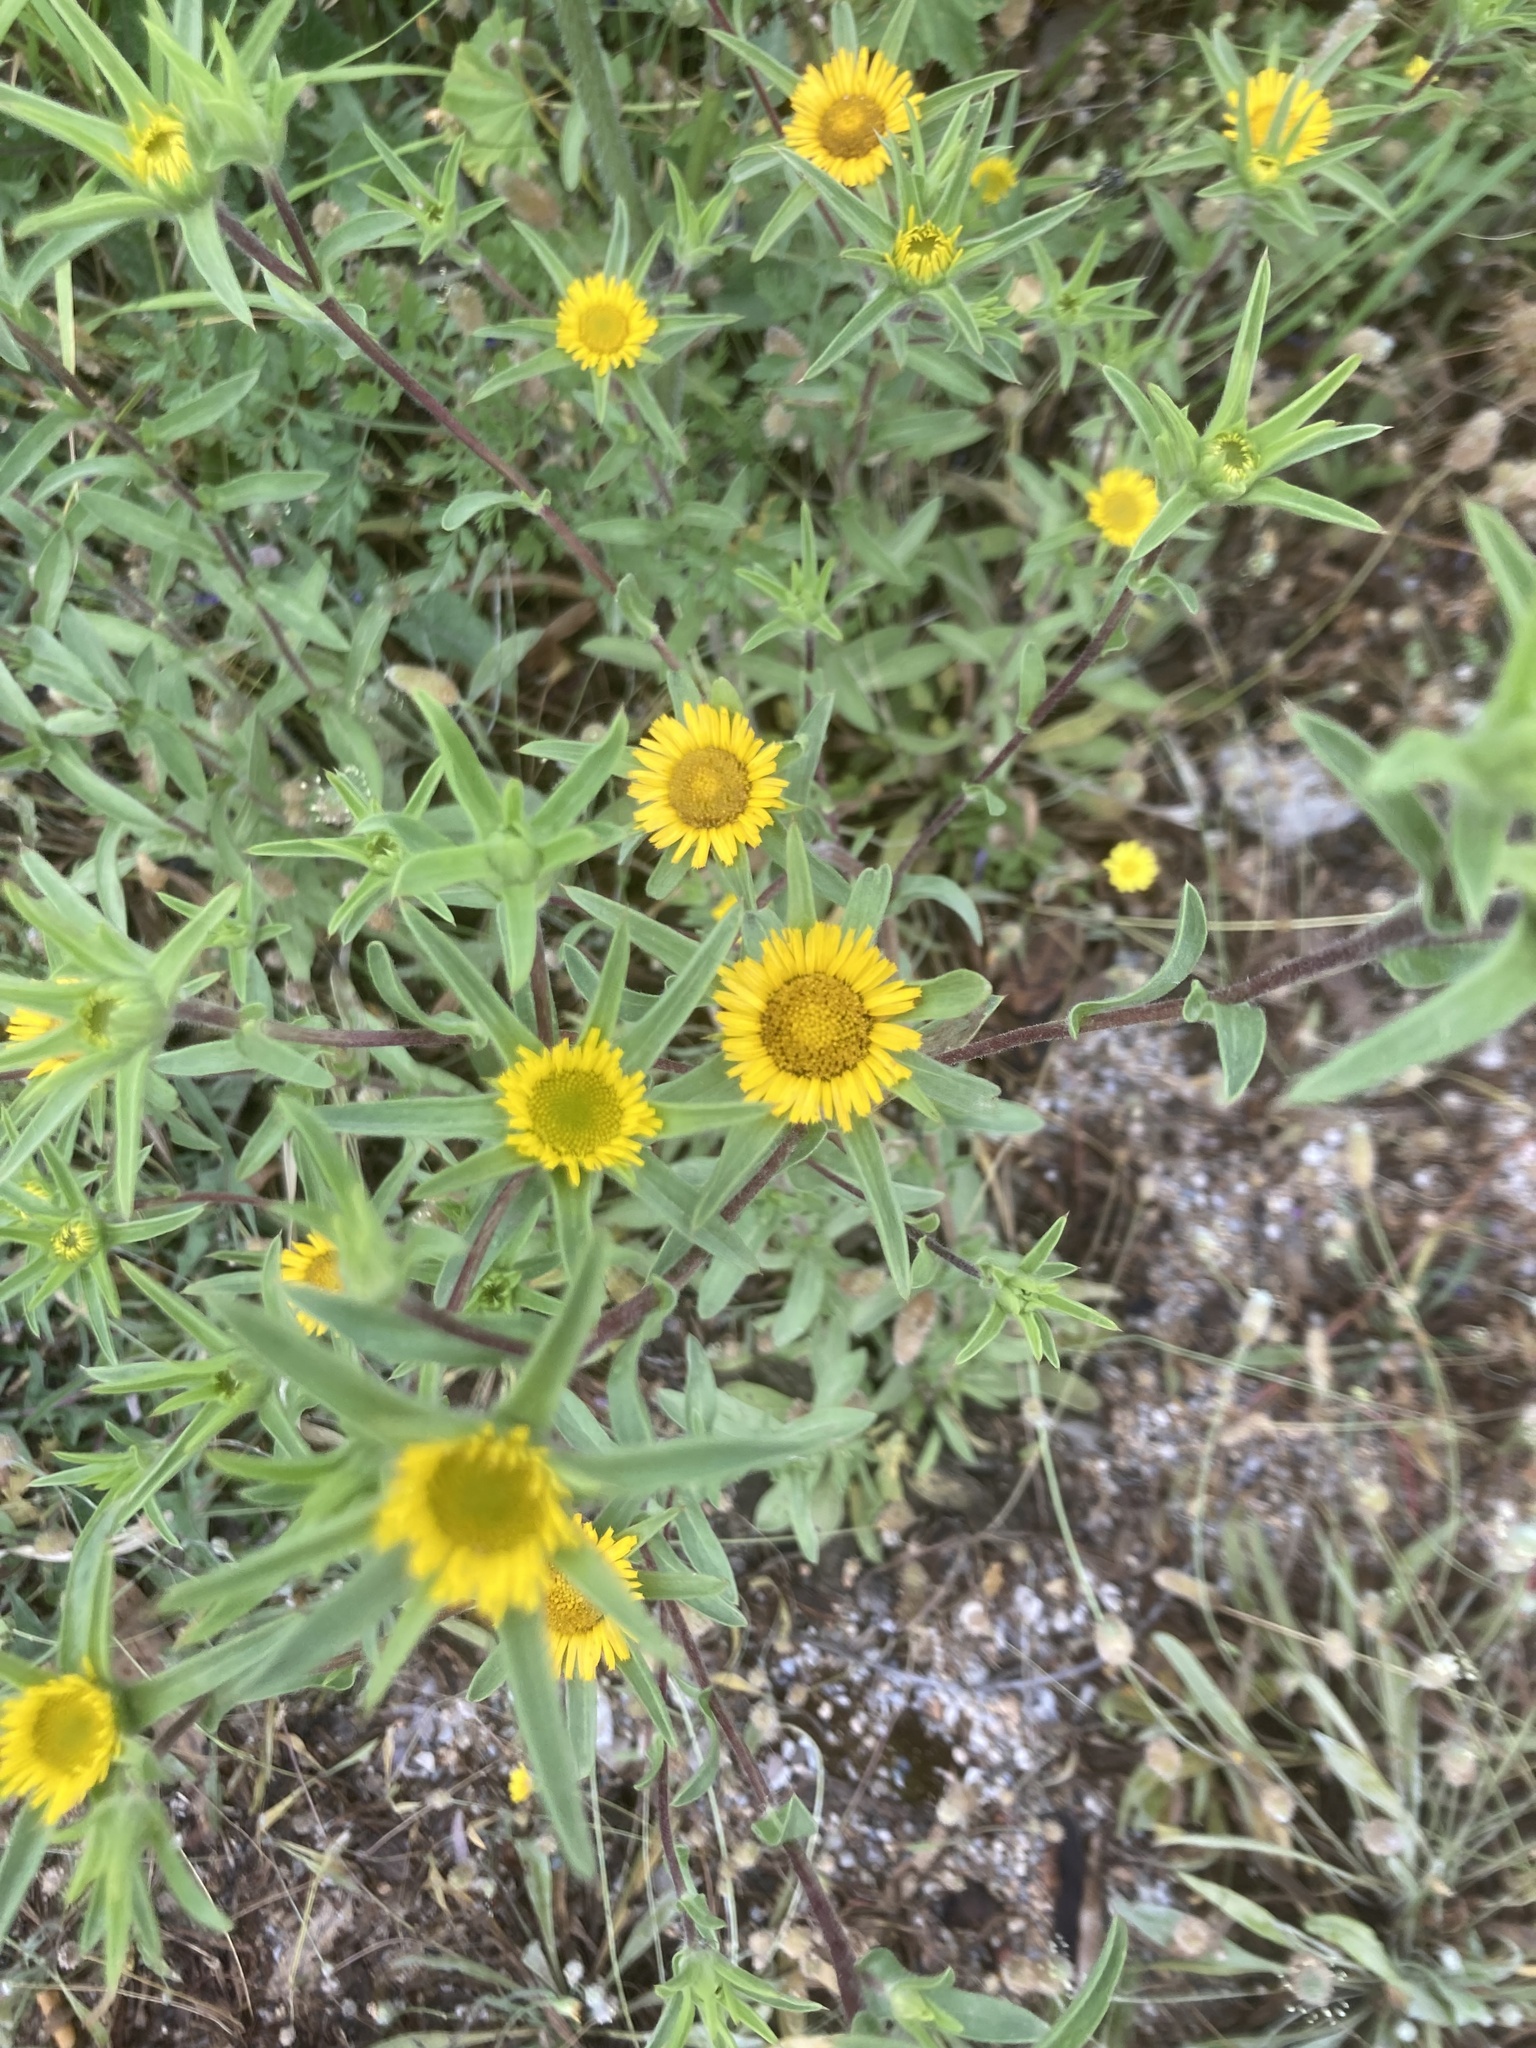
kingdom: Plantae
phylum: Tracheophyta
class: Magnoliopsida
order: Asterales
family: Asteraceae
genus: Pallenis
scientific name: Pallenis spinosa
